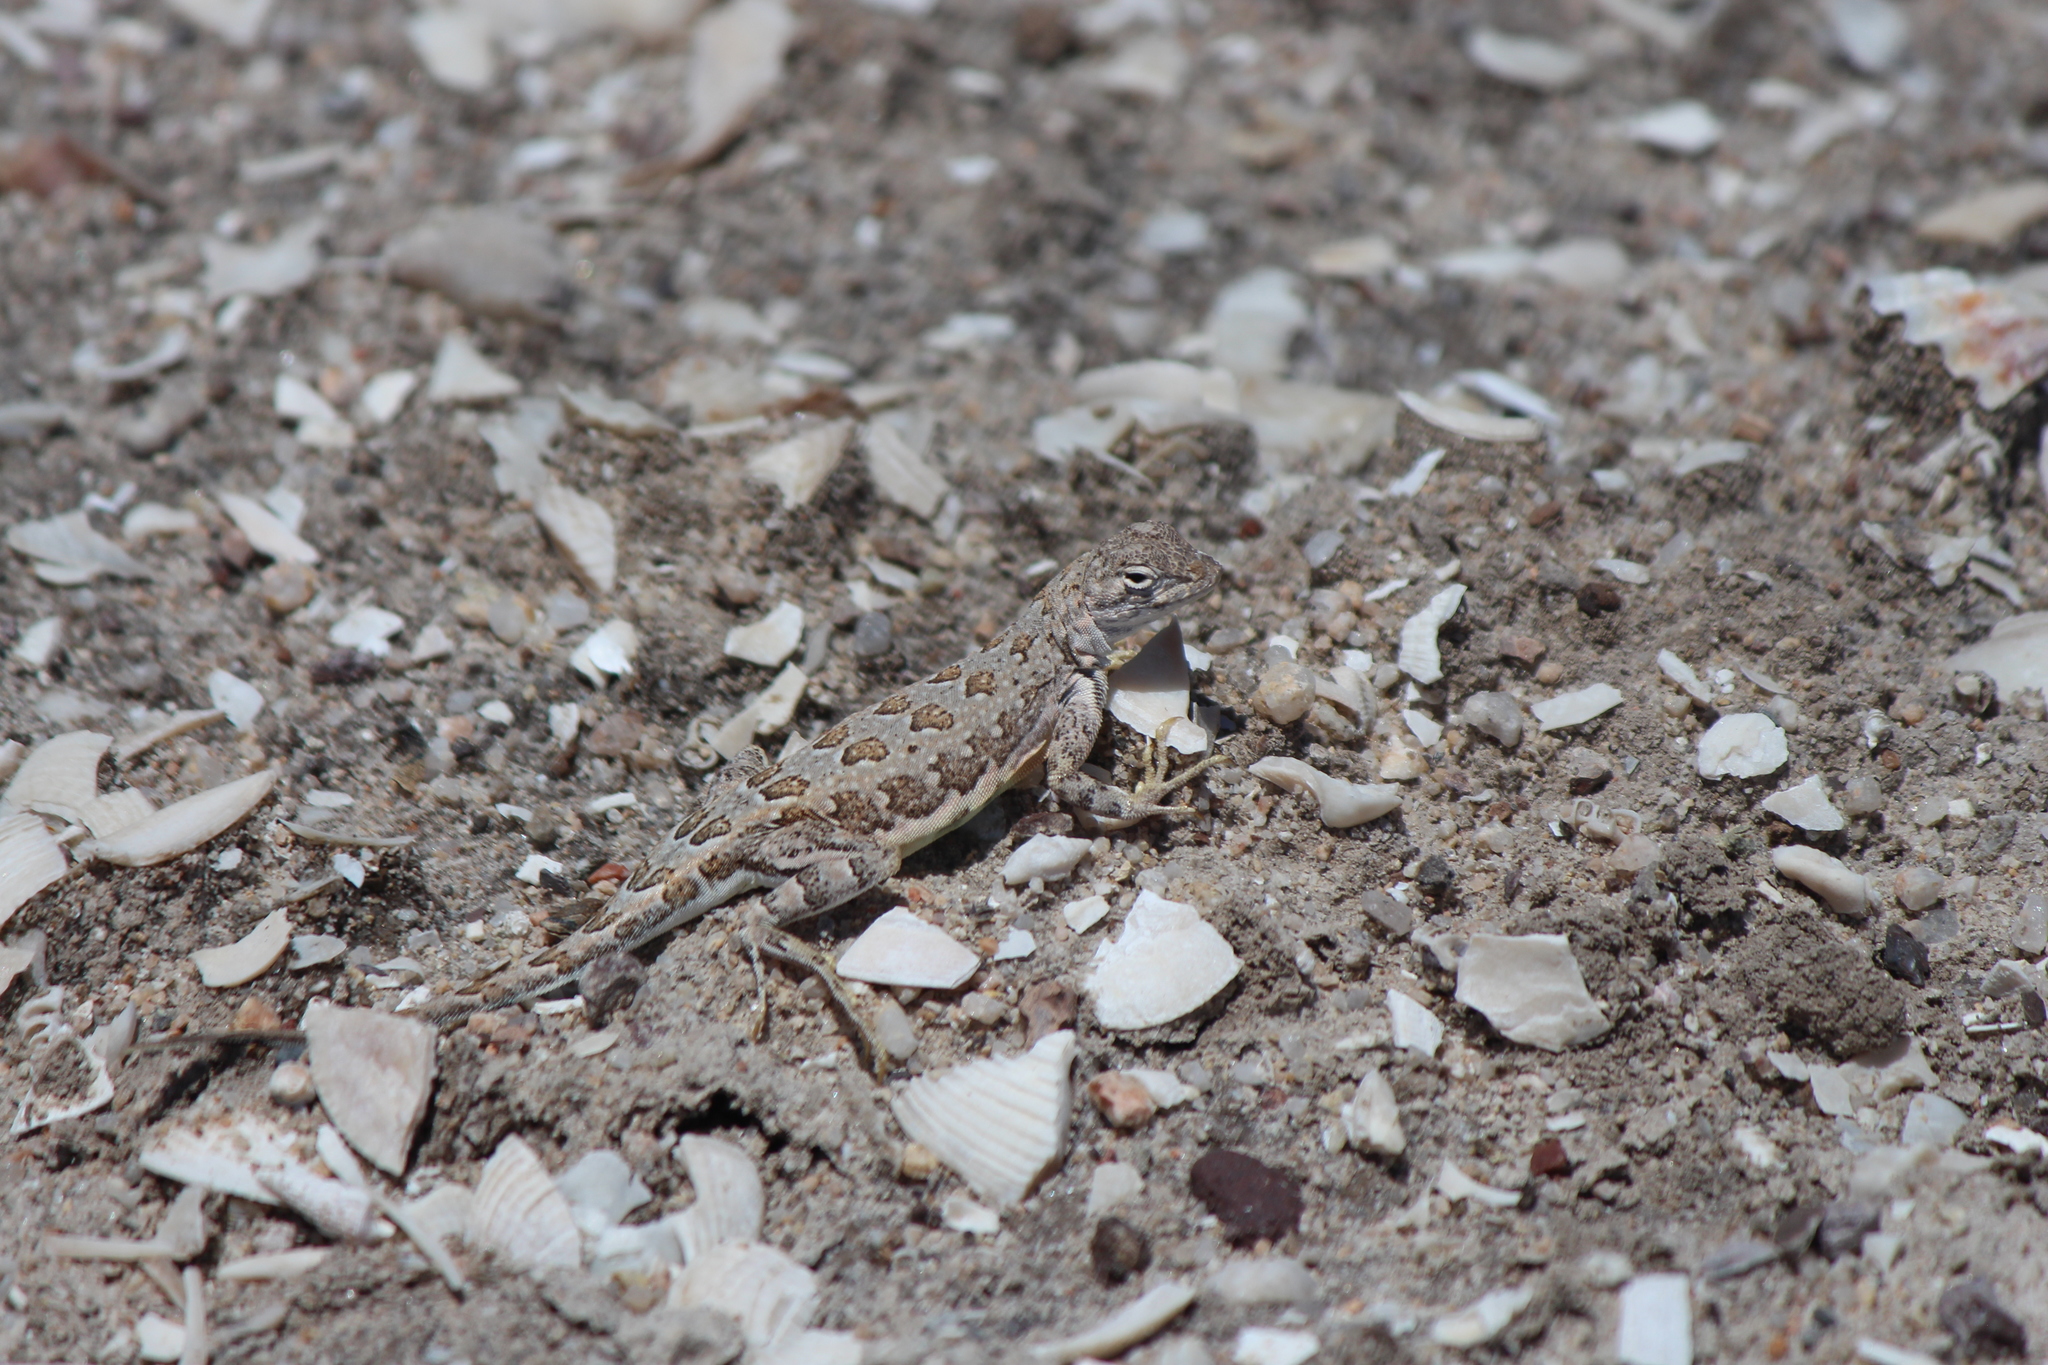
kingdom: Animalia
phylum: Chordata
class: Squamata
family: Phrynosomatidae
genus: Callisaurus
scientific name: Callisaurus draconoides
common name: Zebra-tailed lizard
